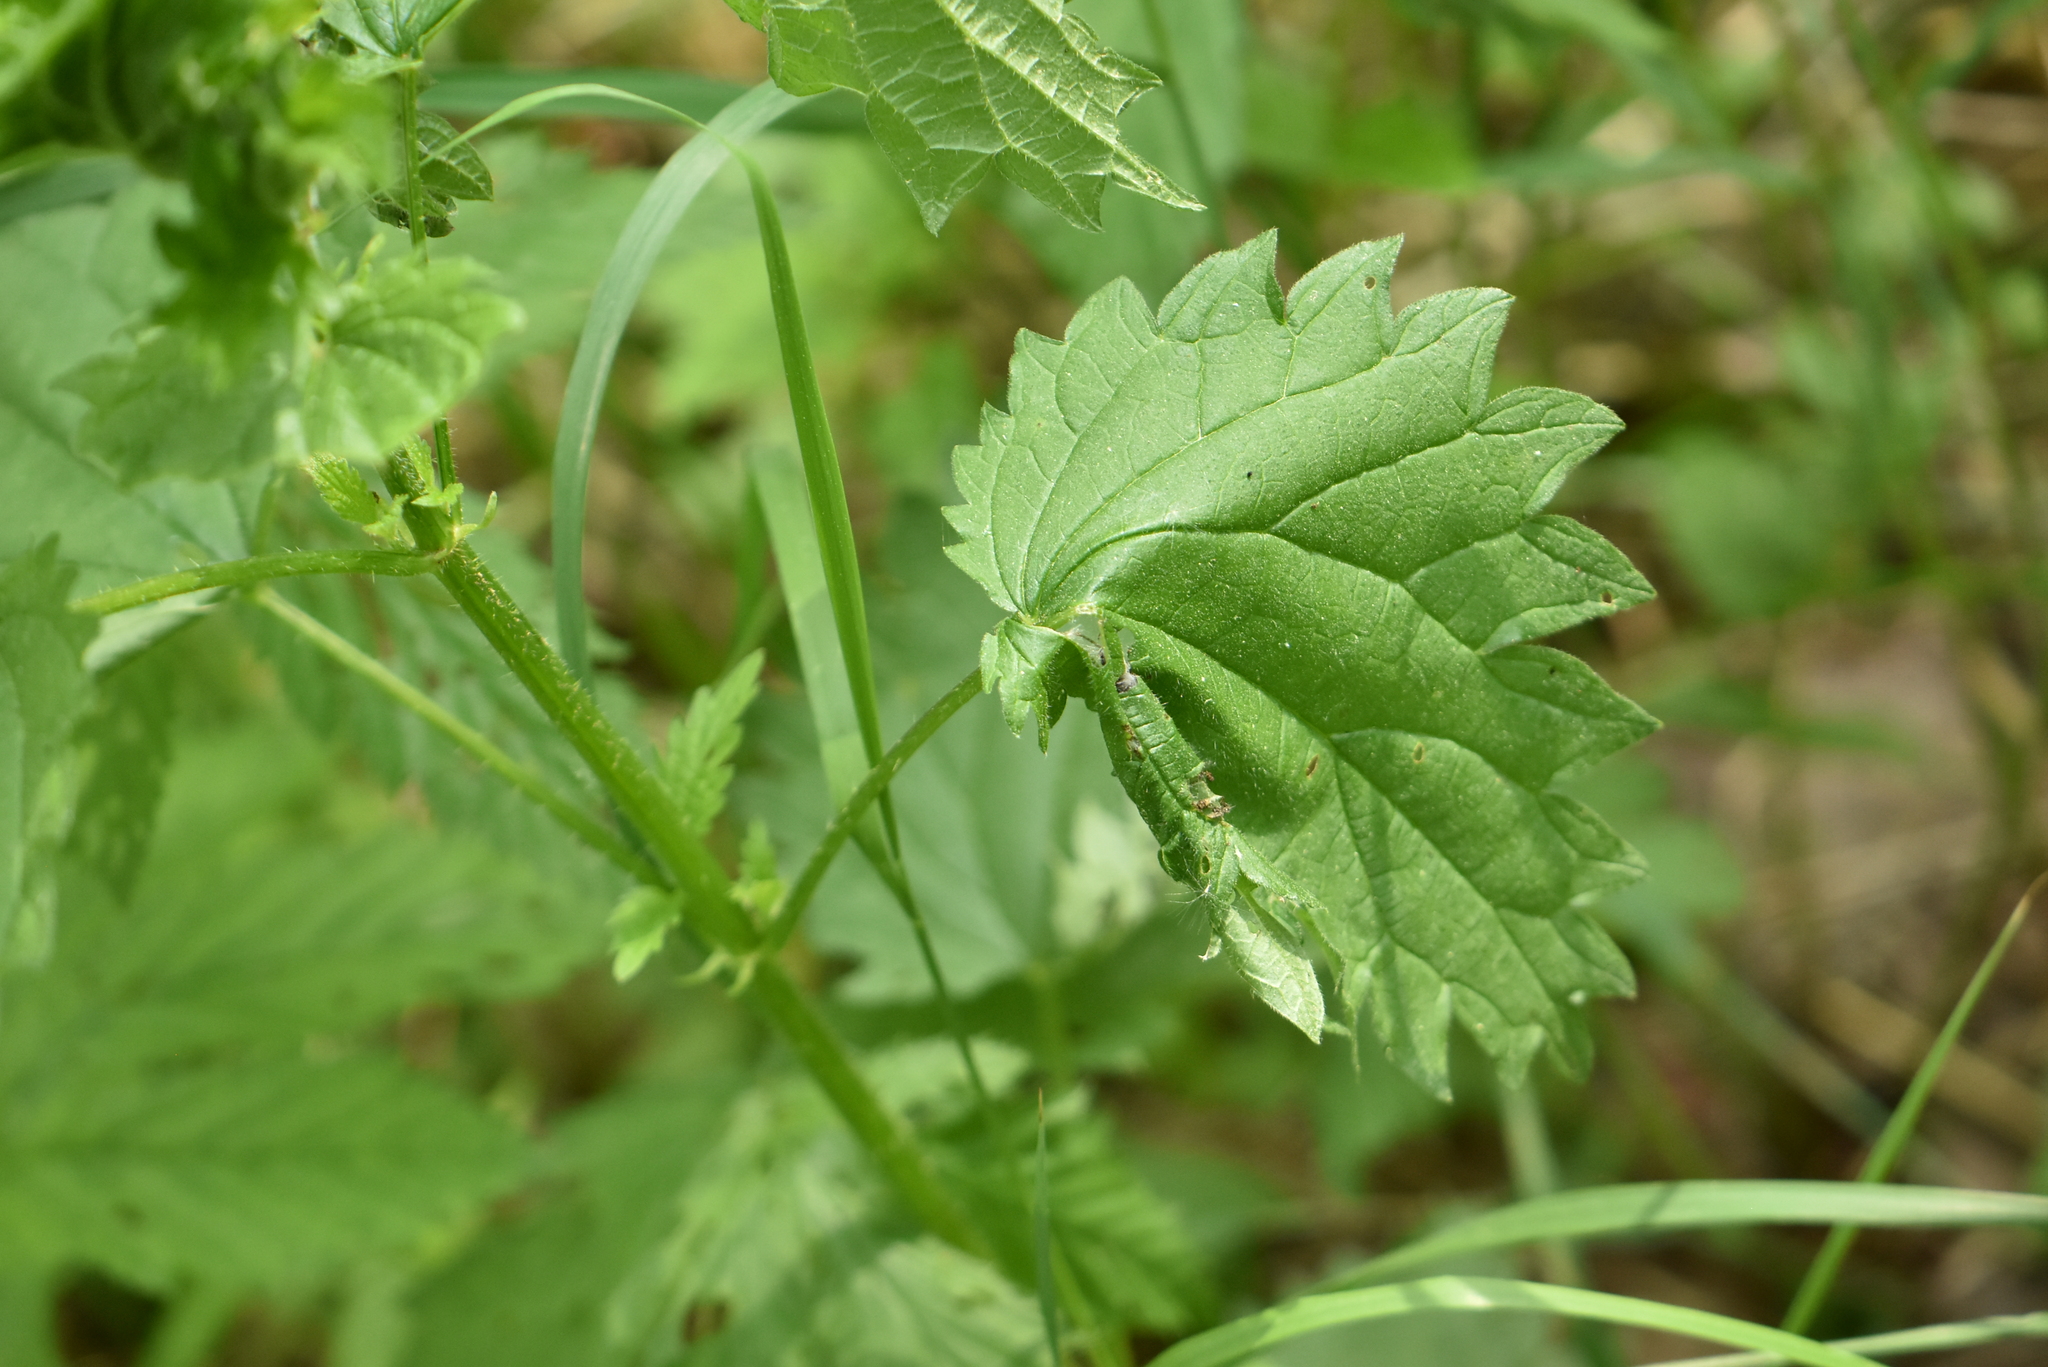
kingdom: Plantae
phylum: Tracheophyta
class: Magnoliopsida
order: Rosales
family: Urticaceae
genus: Urtica
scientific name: Urtica galeopsifolia
